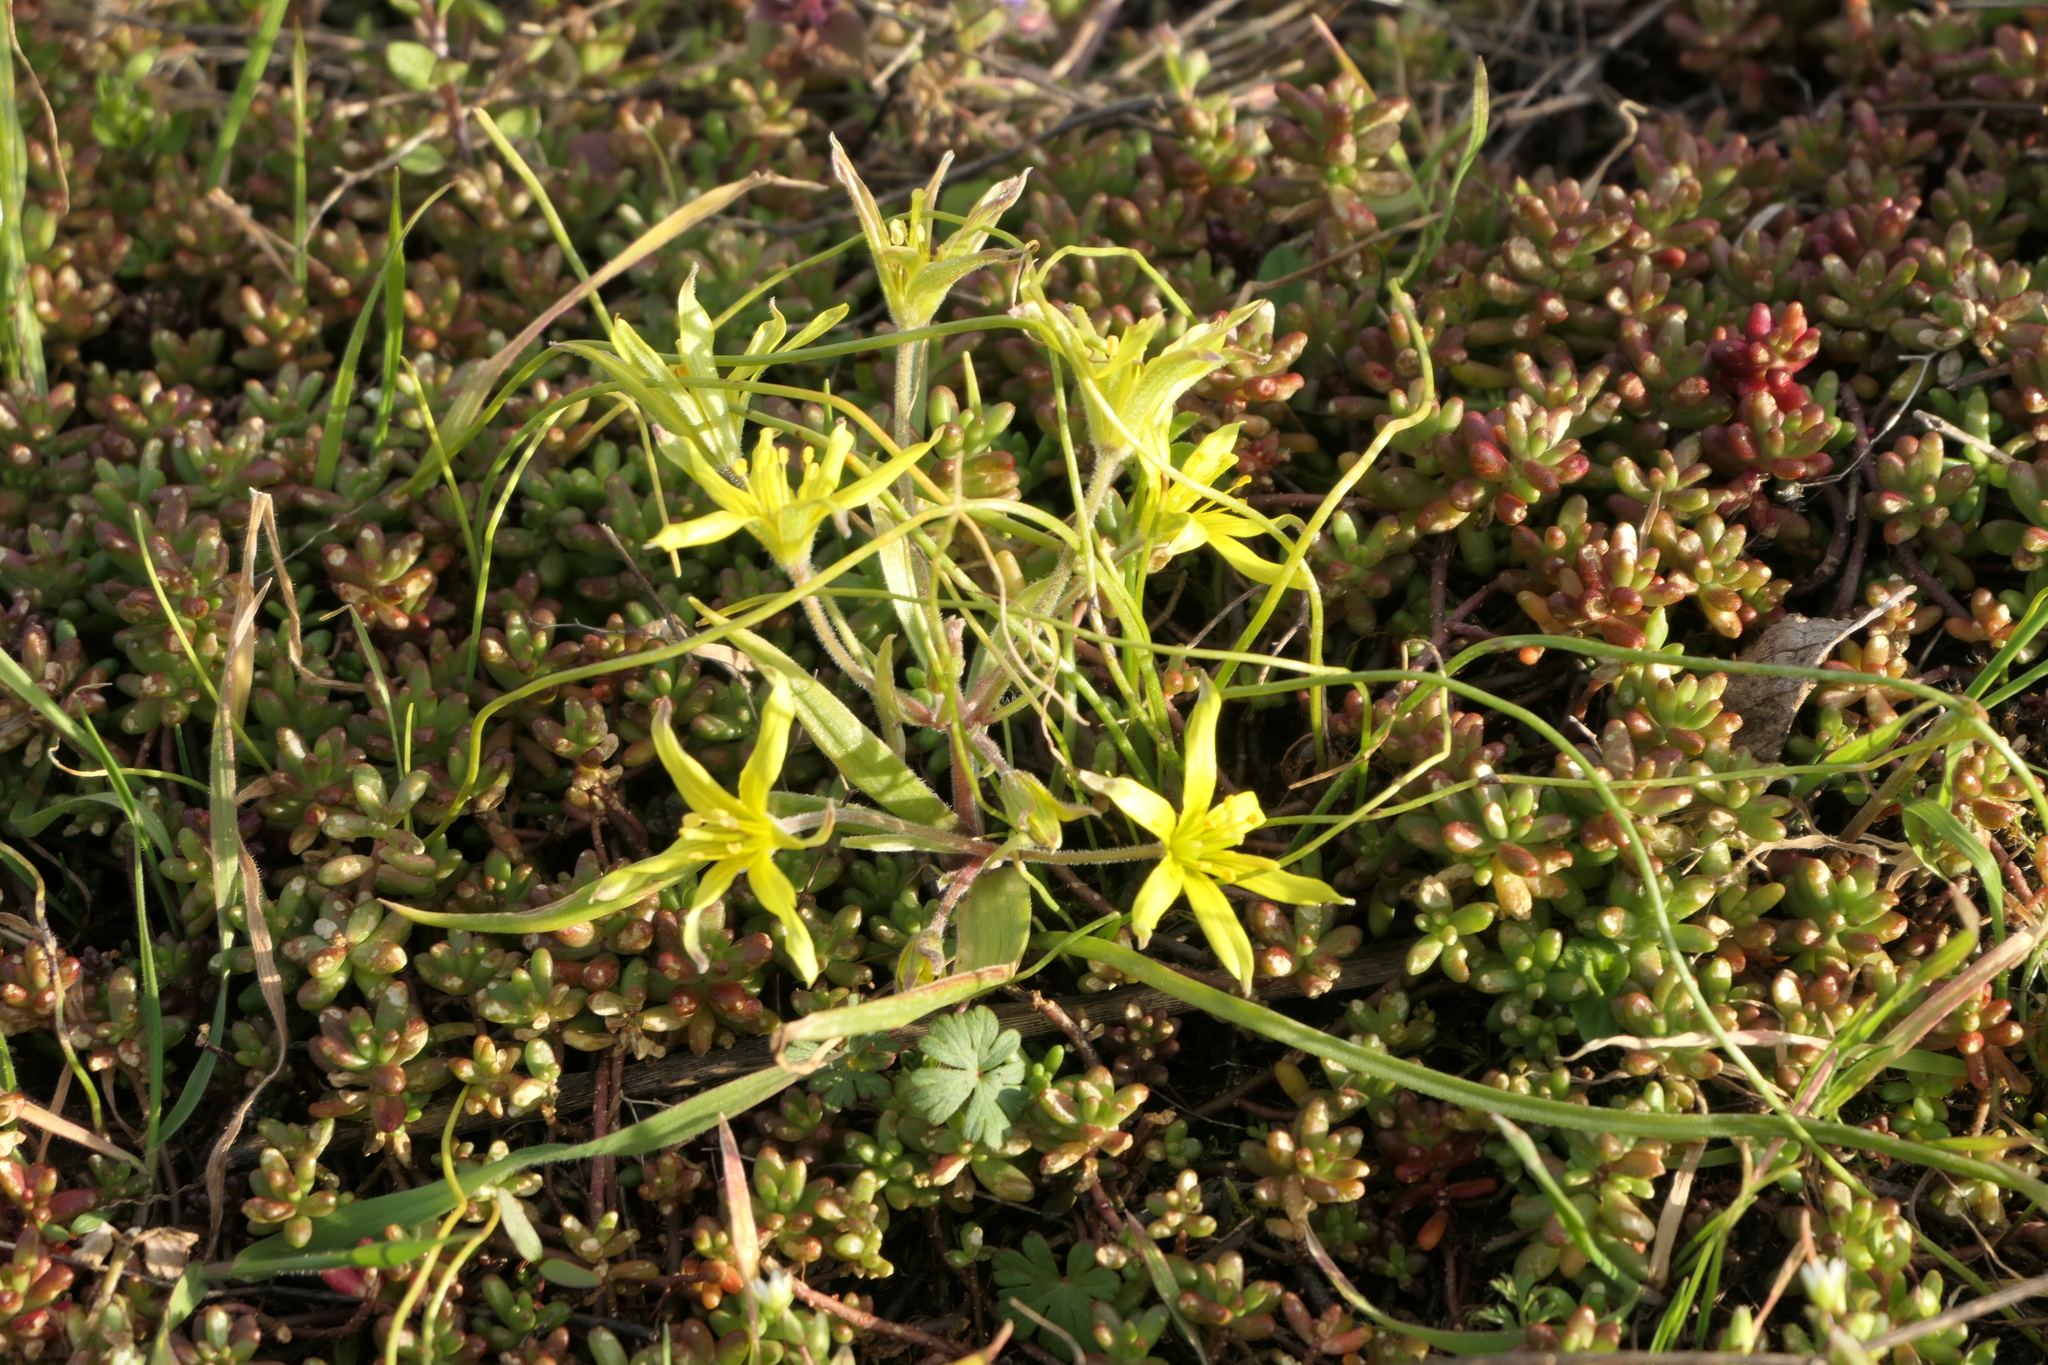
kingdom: Plantae
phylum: Tracheophyta
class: Liliopsida
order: Liliales
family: Liliaceae
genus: Gagea
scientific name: Gagea villosa
